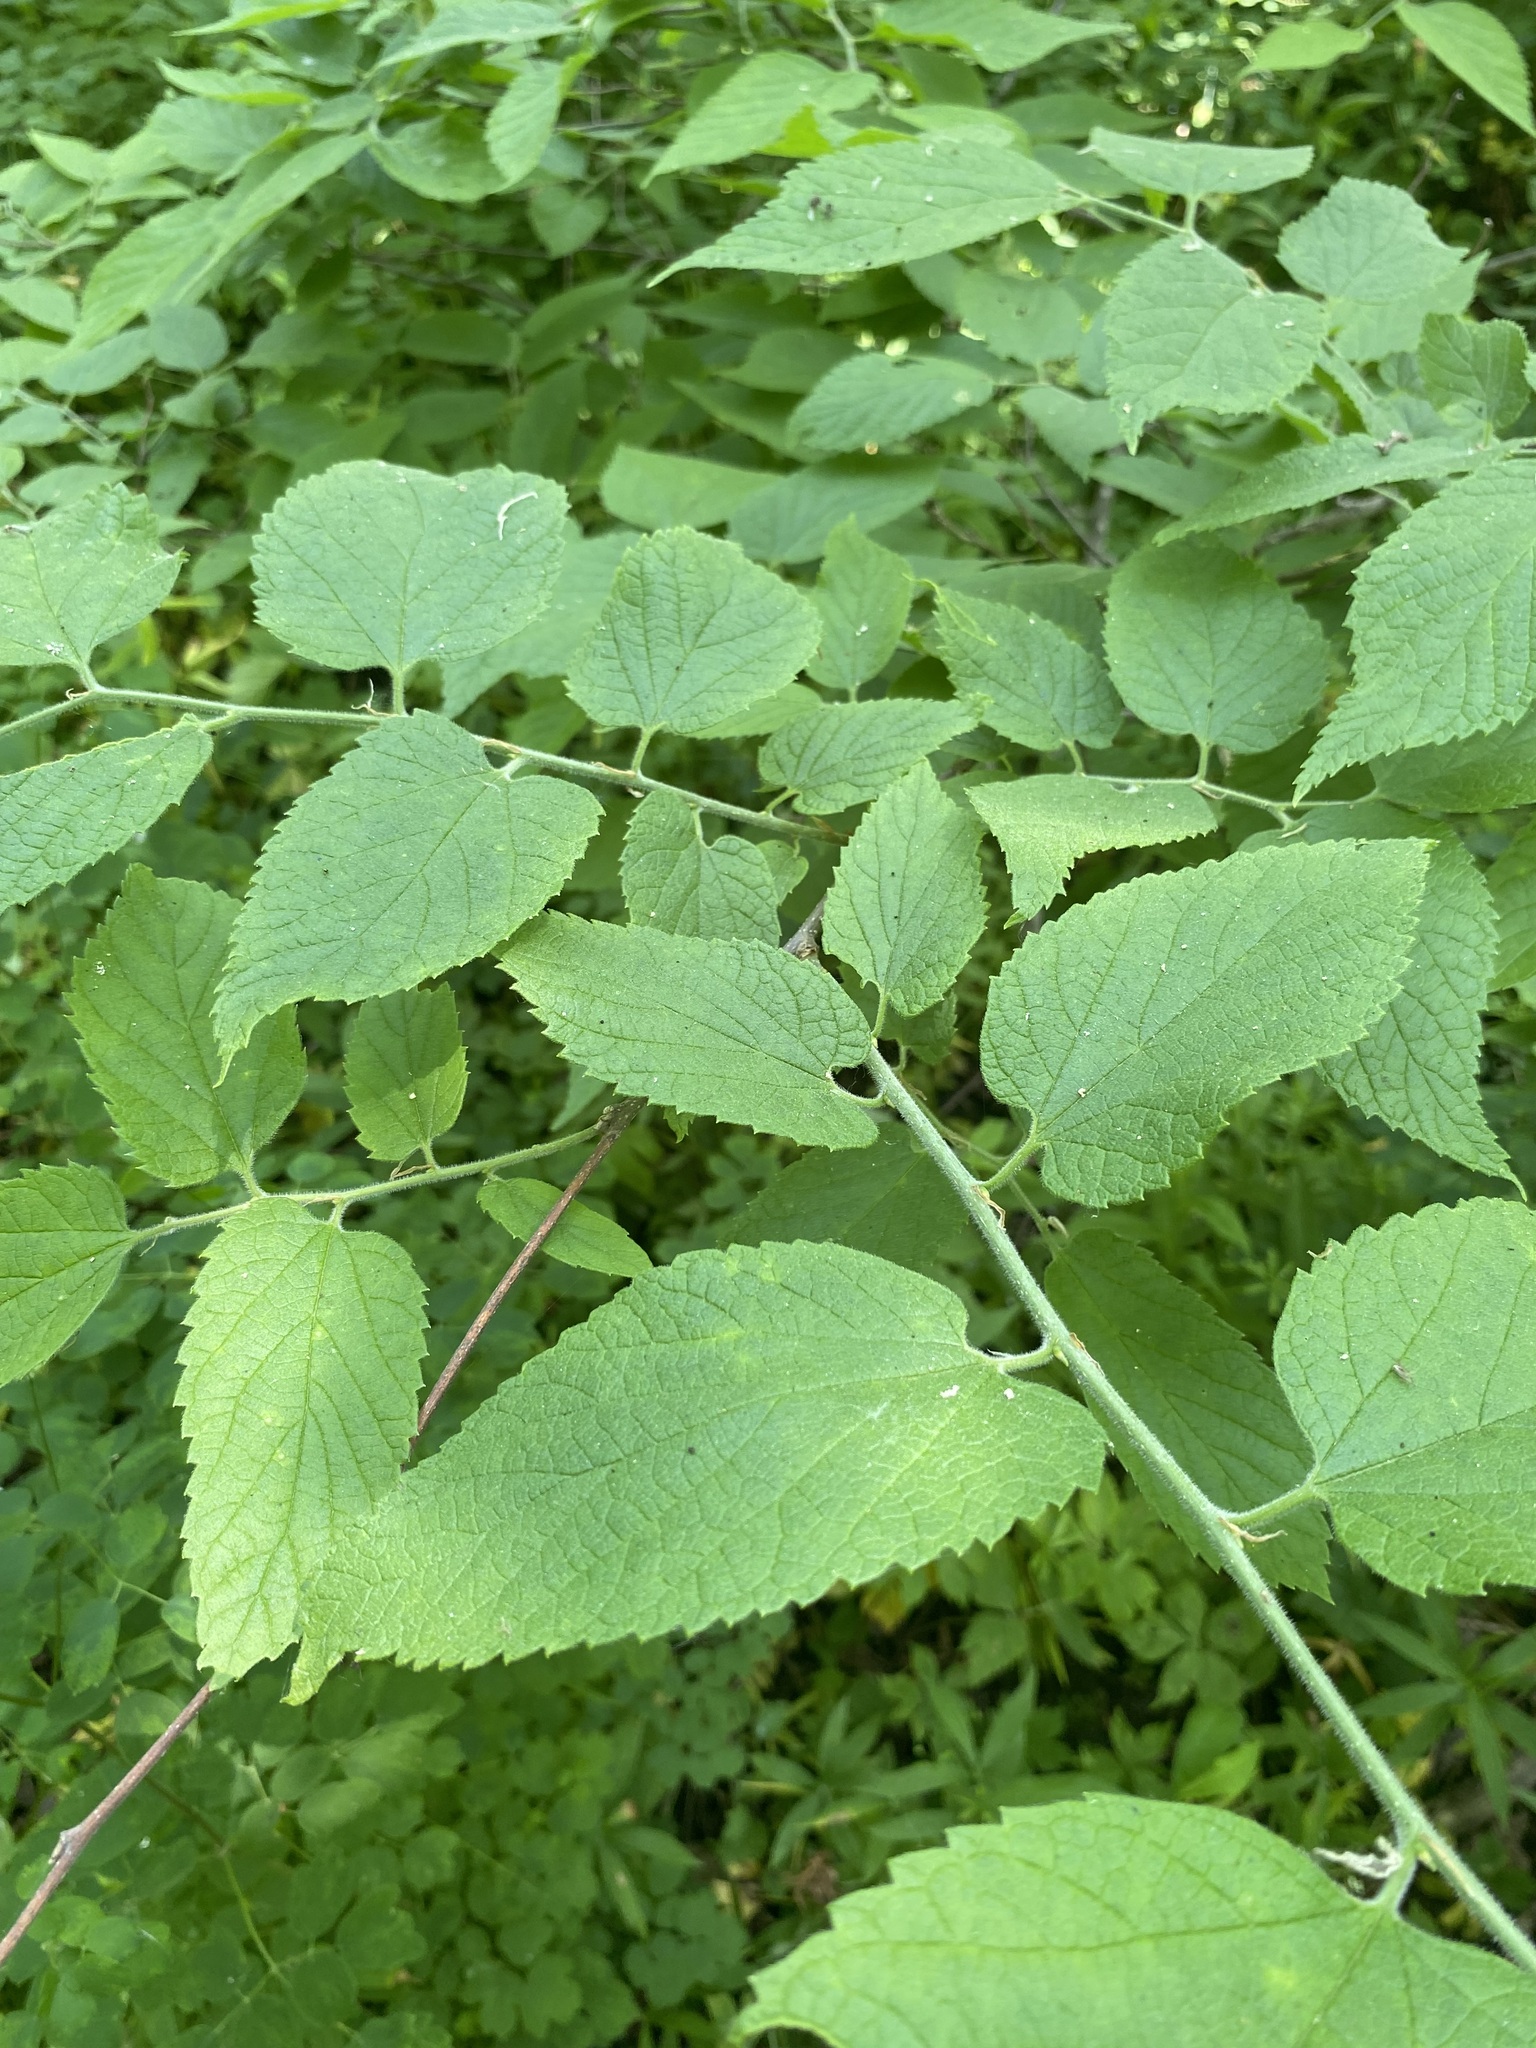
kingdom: Plantae
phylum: Tracheophyta
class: Magnoliopsida
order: Rosales
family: Cannabaceae
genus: Celtis
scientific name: Celtis occidentalis
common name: Common hackberry
